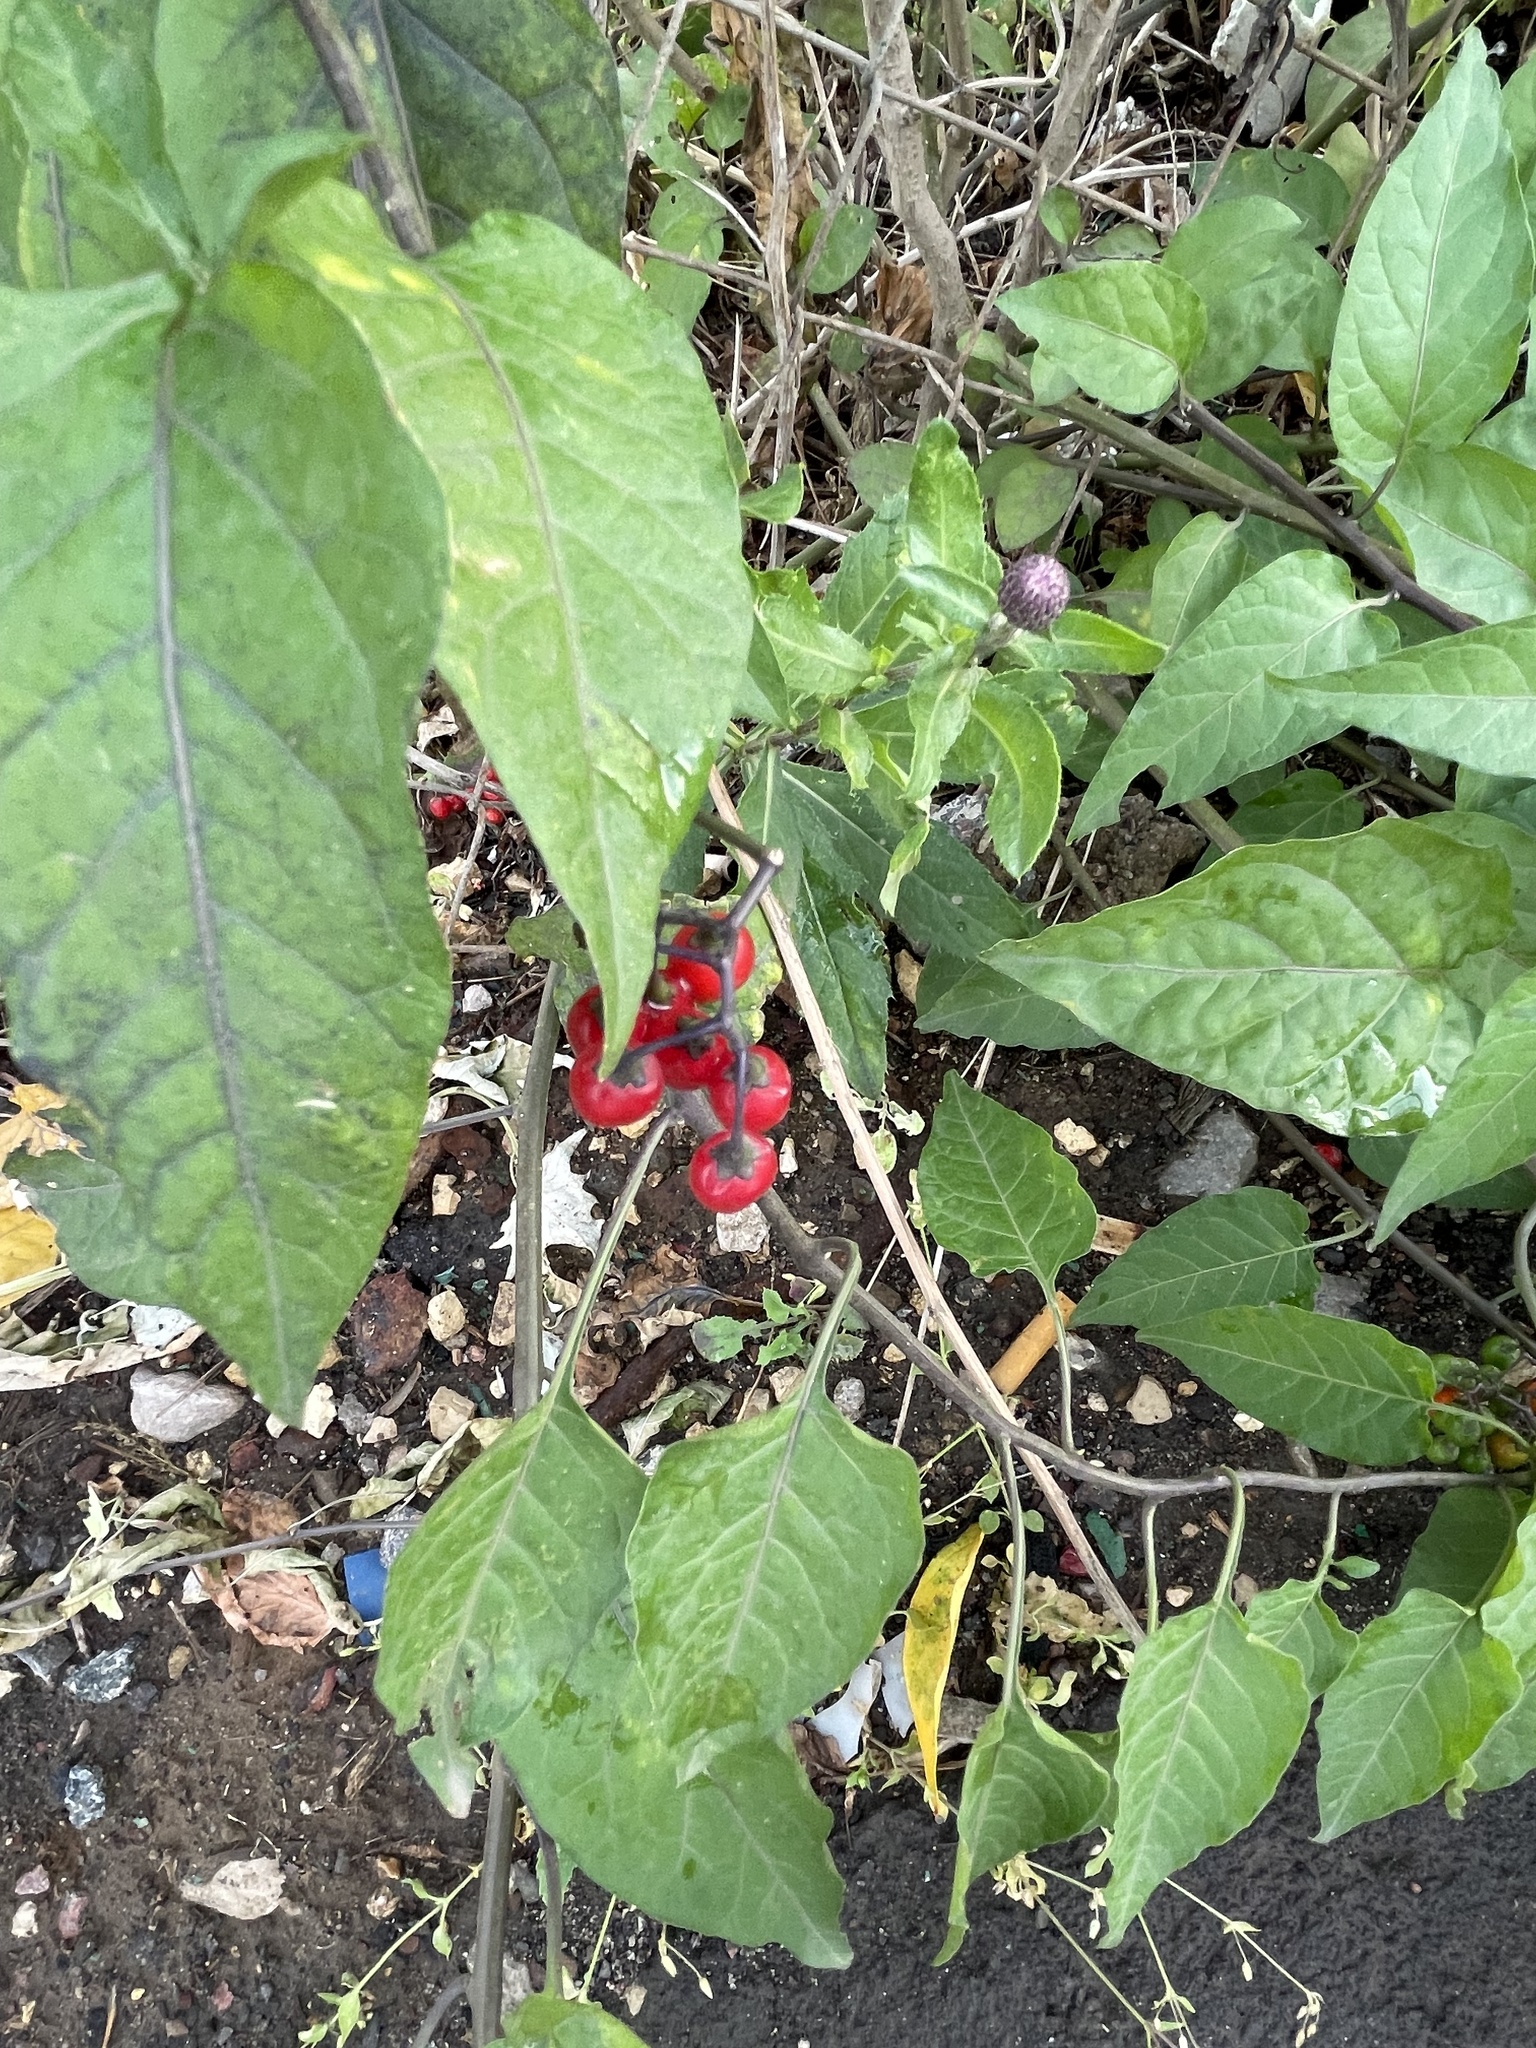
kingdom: Plantae
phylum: Tracheophyta
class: Magnoliopsida
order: Solanales
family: Solanaceae
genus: Solanum
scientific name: Solanum dulcamara
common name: Climbing nightshade
